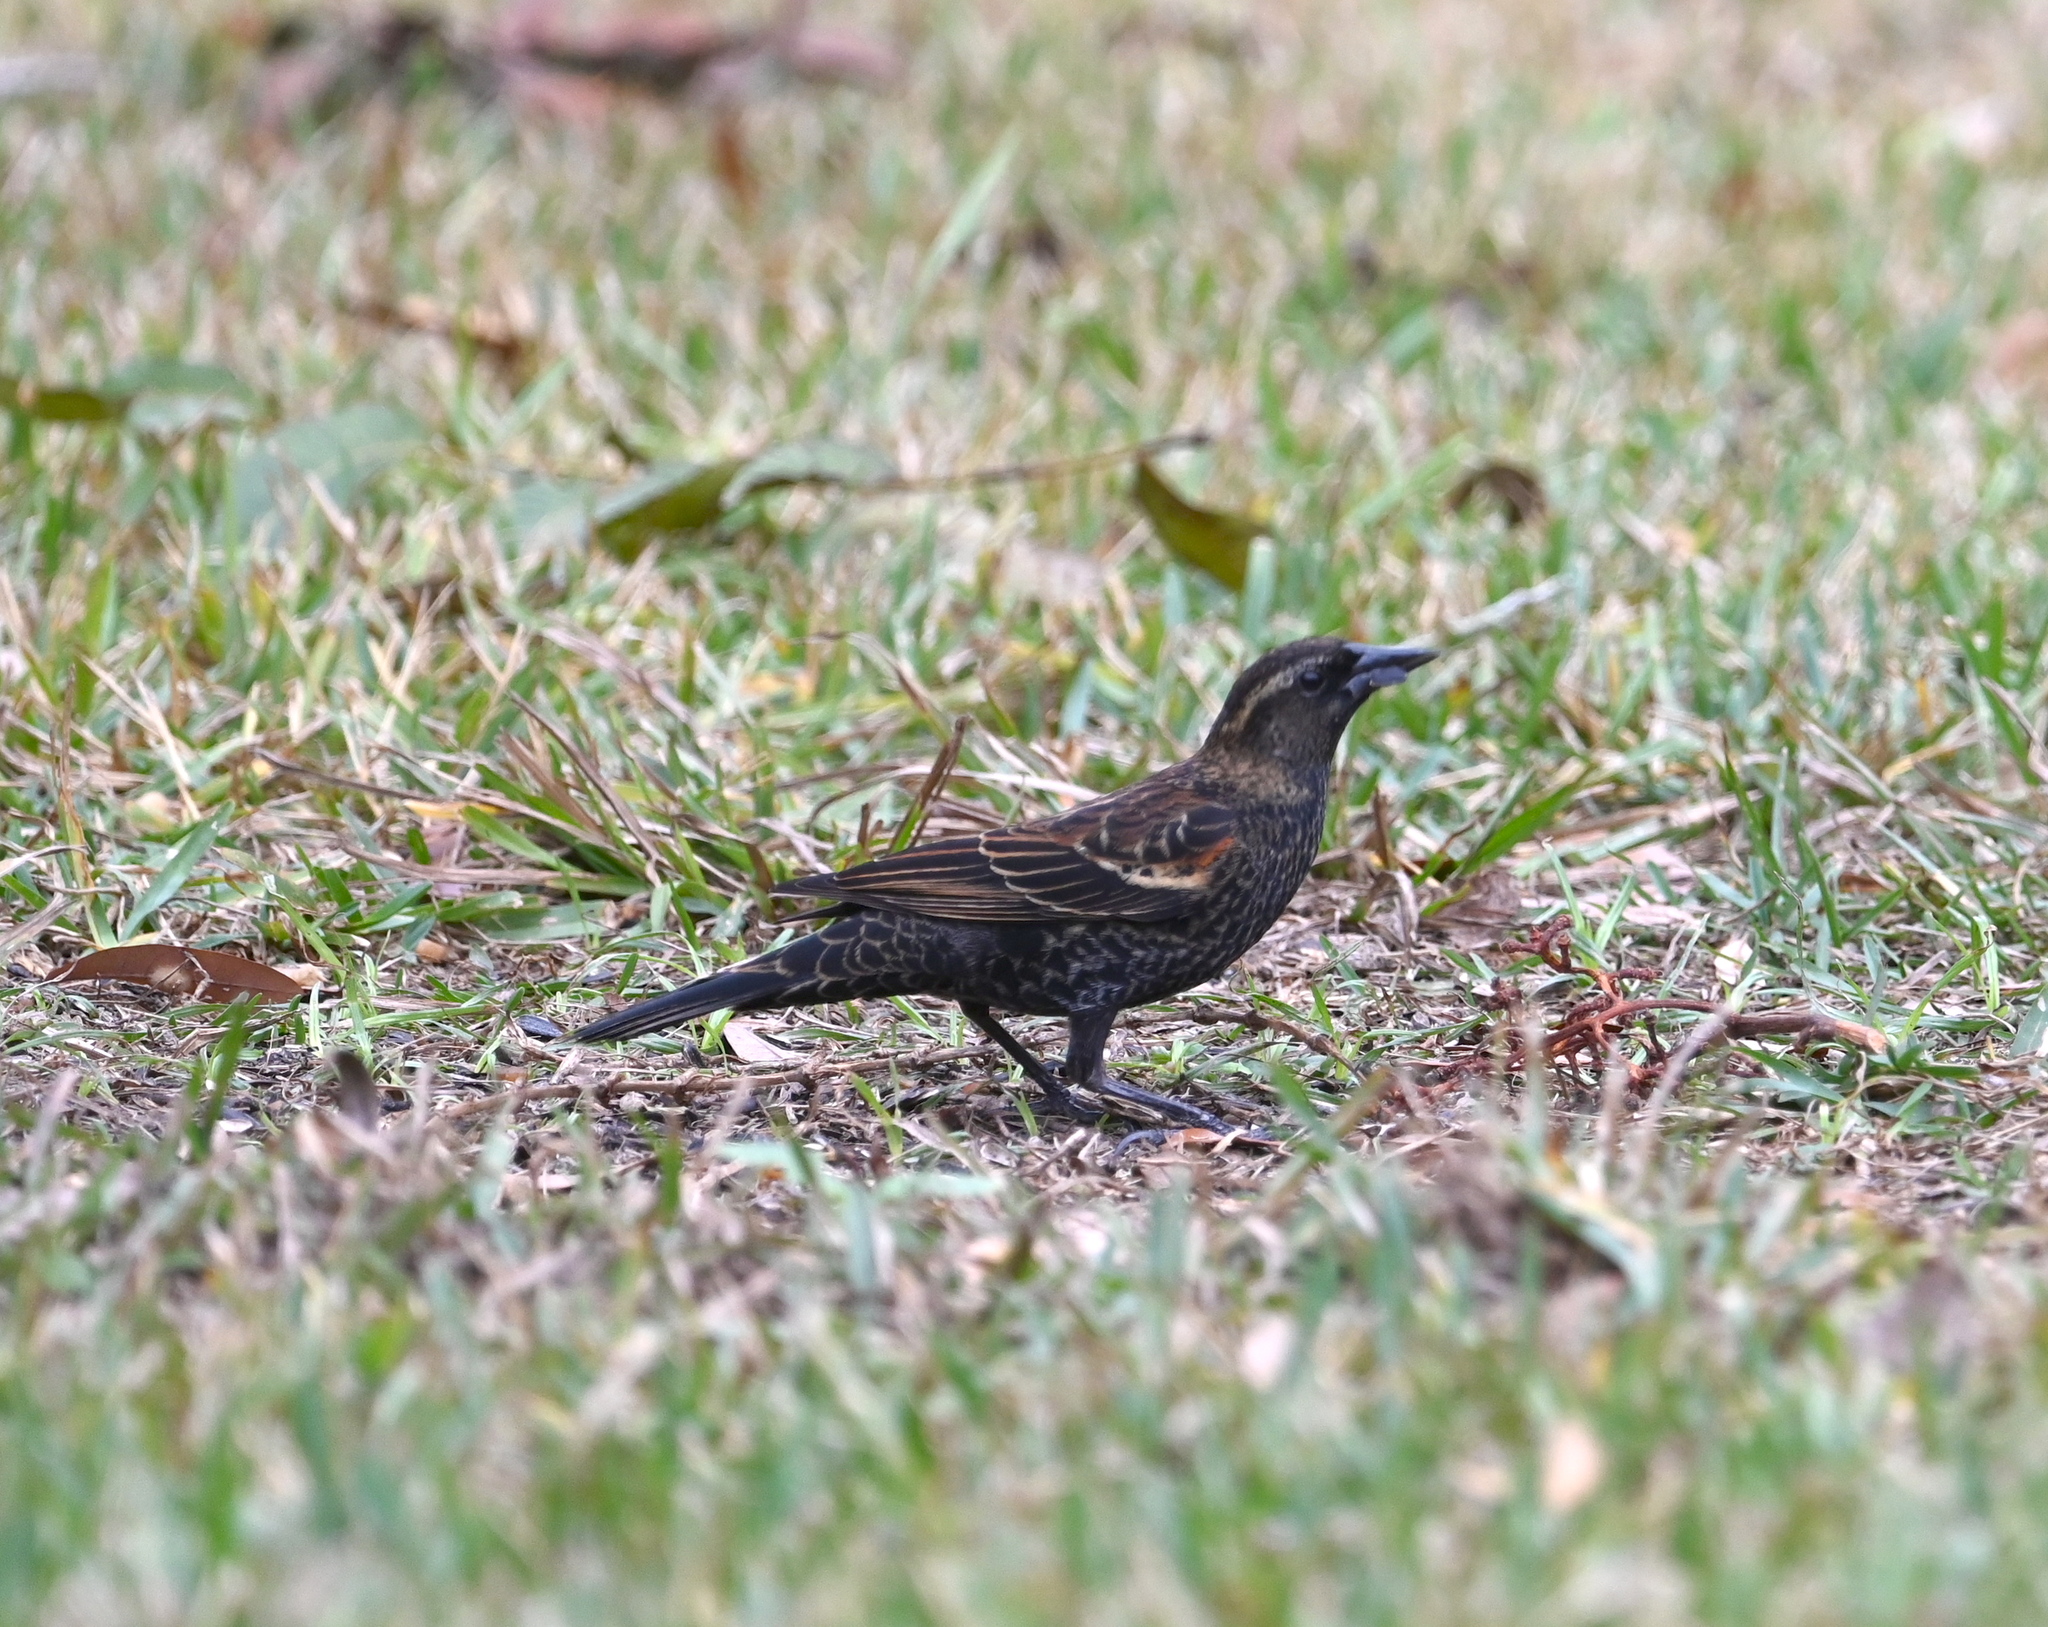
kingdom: Animalia
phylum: Chordata
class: Aves
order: Passeriformes
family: Icteridae
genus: Agelaius
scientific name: Agelaius phoeniceus
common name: Red-winged blackbird
